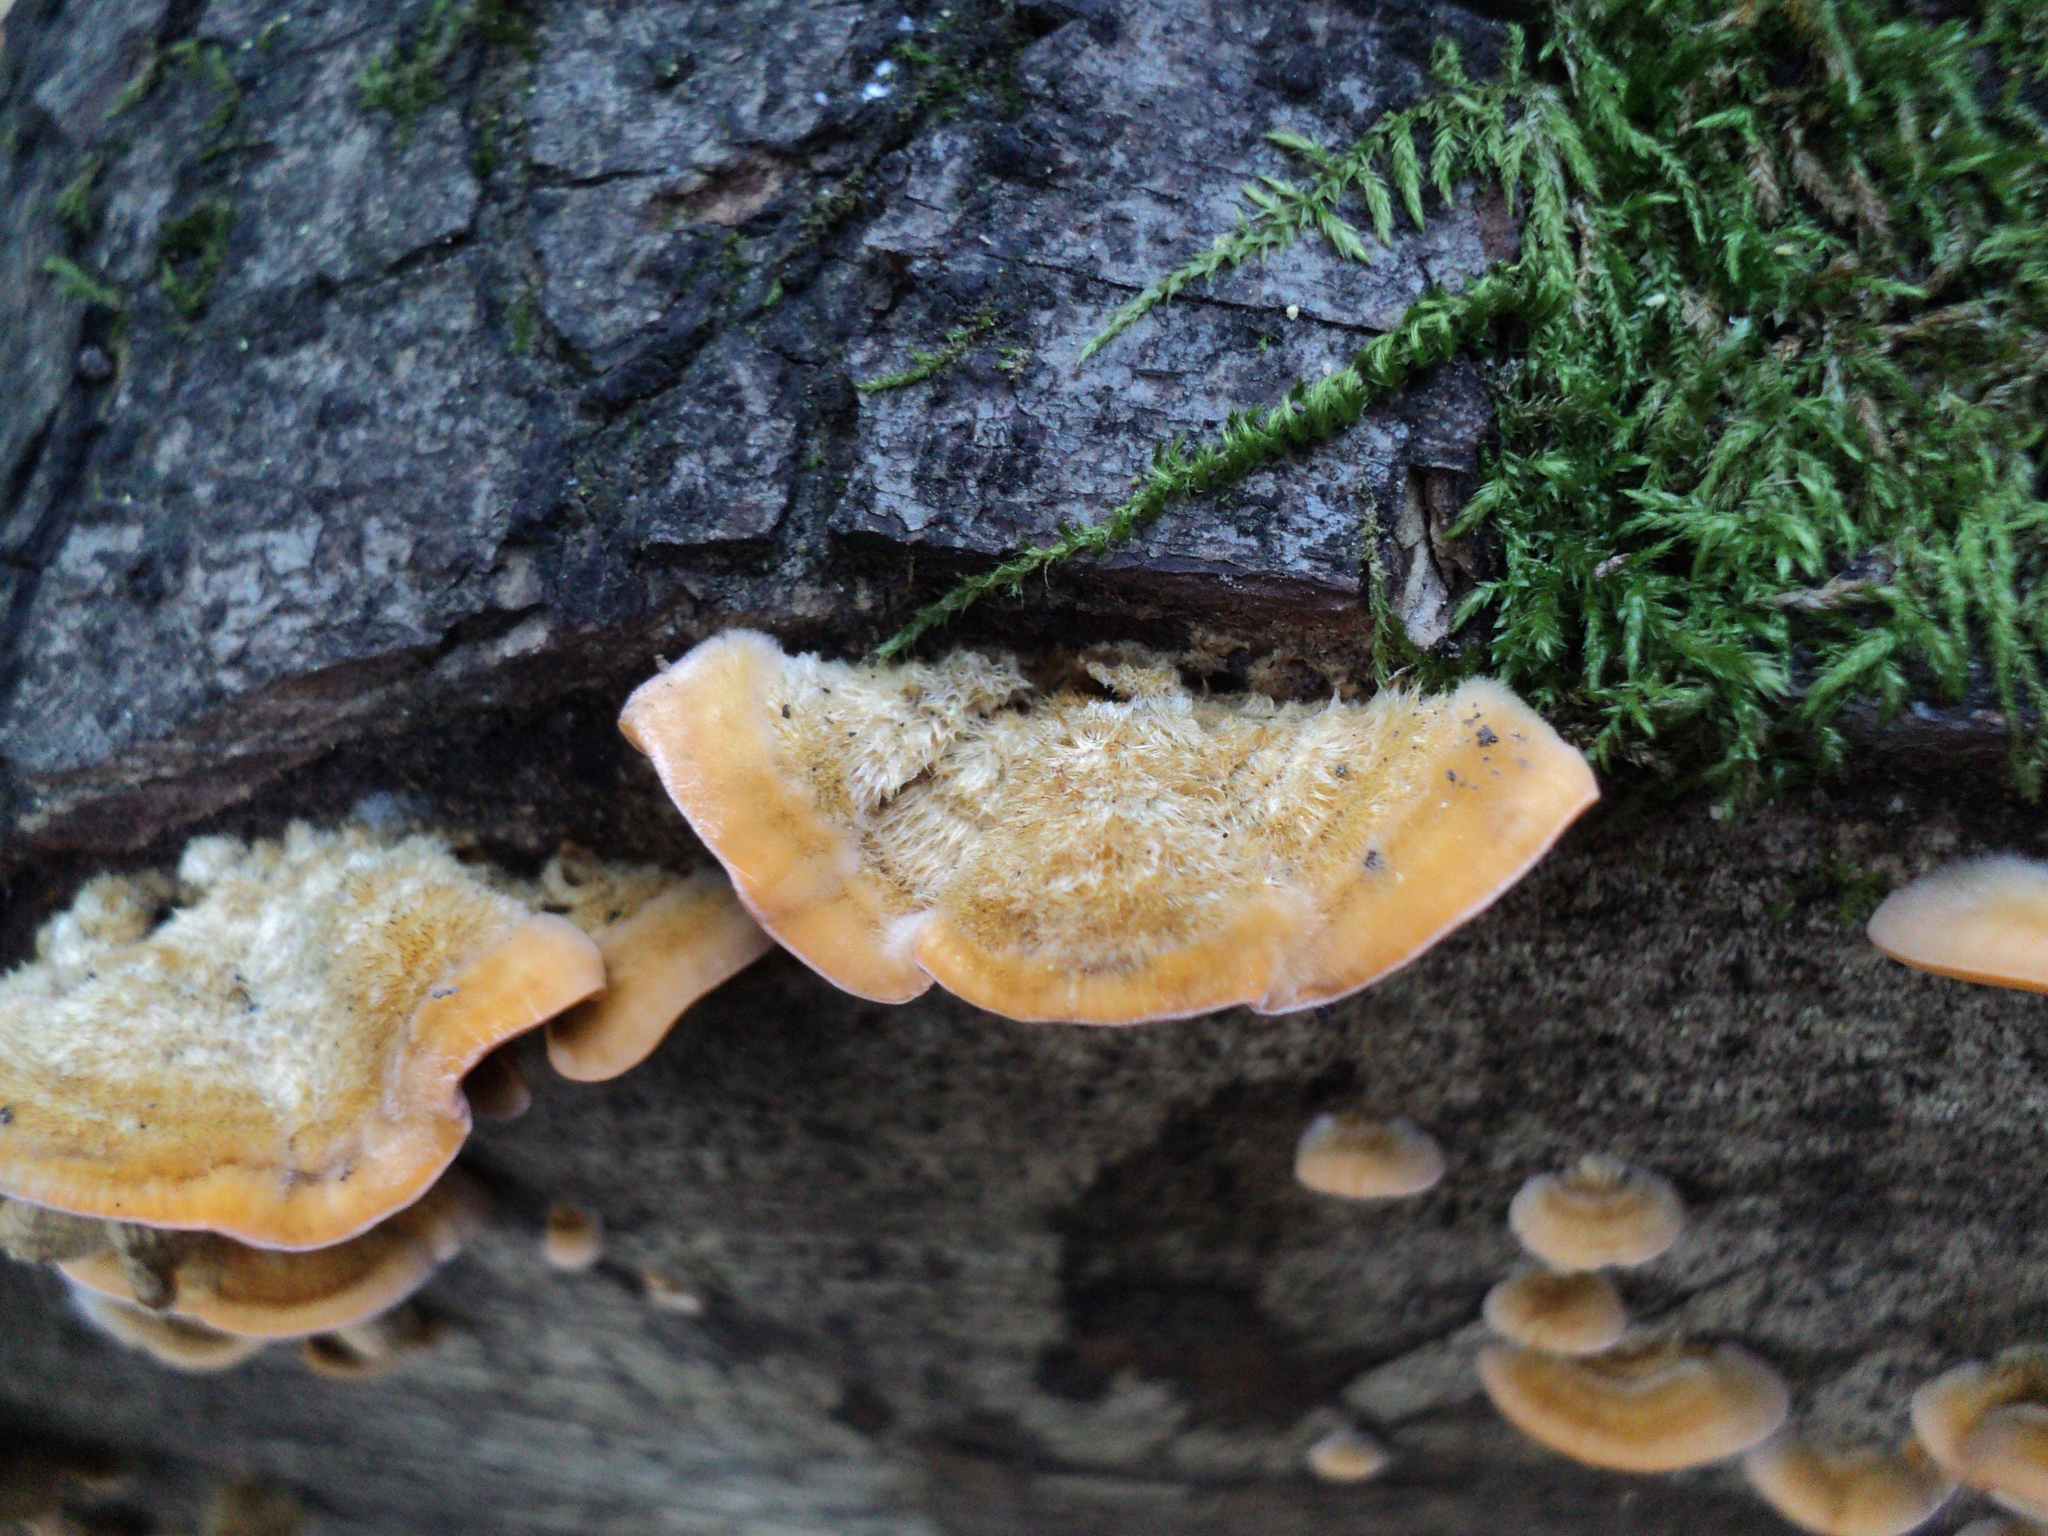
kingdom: Fungi
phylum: Basidiomycota
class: Agaricomycetes
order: Russulales
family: Stereaceae
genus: Stereum
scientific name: Stereum hirsutum
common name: Hairy curtain crust
